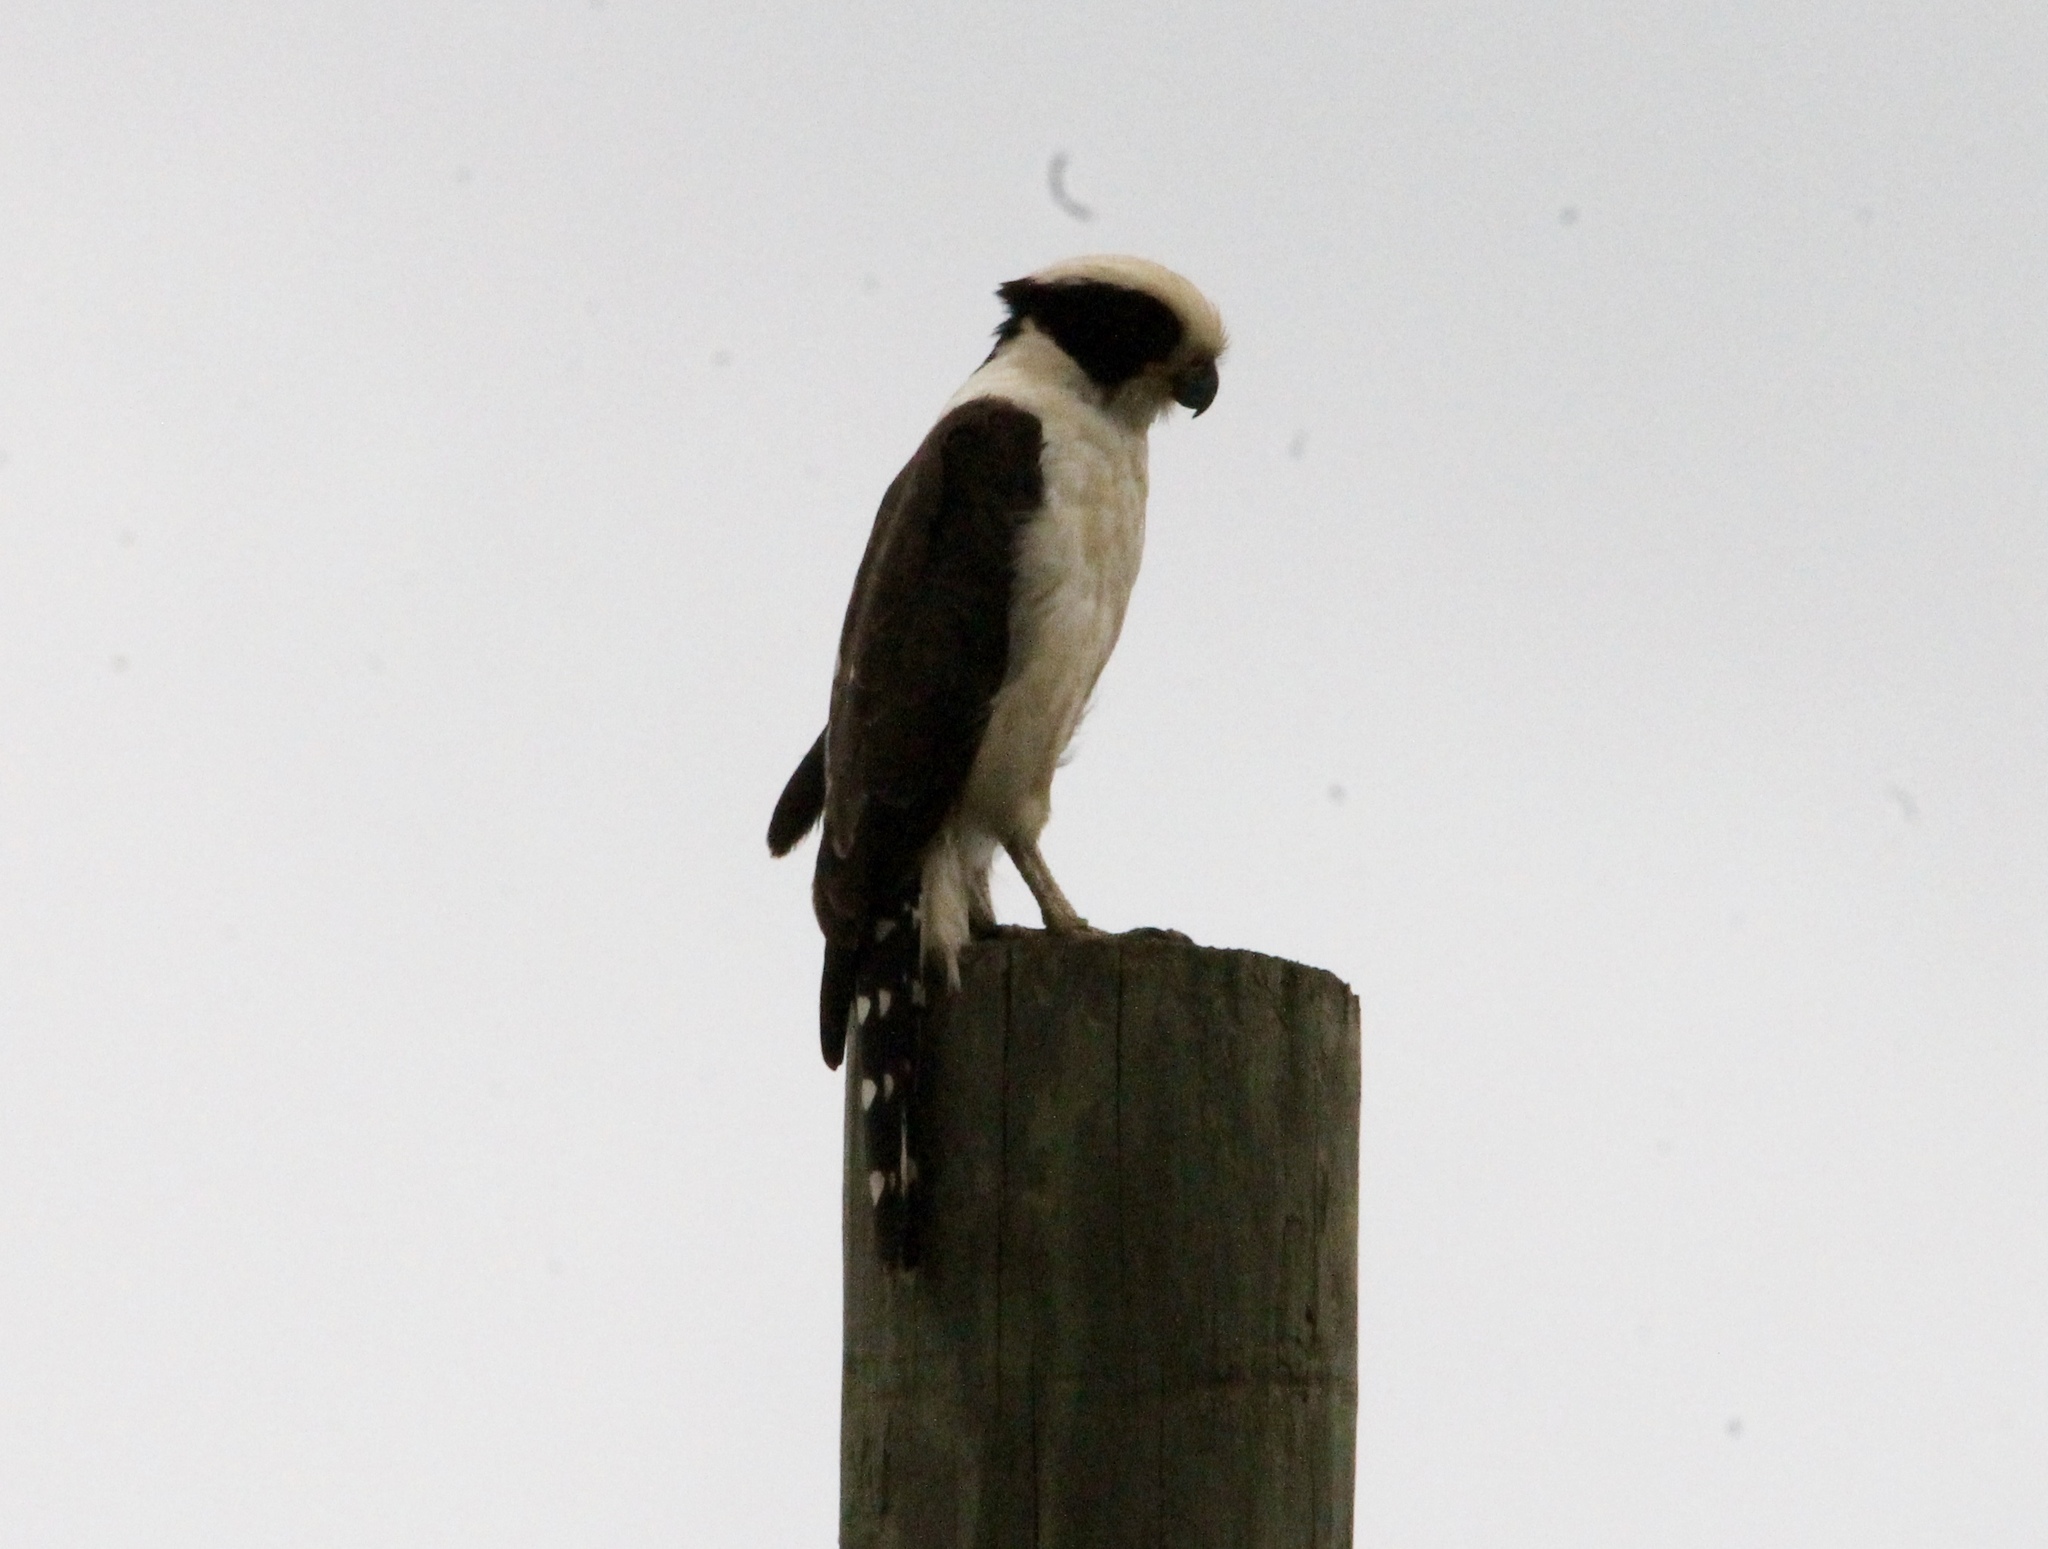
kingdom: Animalia
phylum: Chordata
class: Aves
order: Falconiformes
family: Falconidae
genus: Herpetotheres
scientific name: Herpetotheres cachinnans
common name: Laughing falcon
